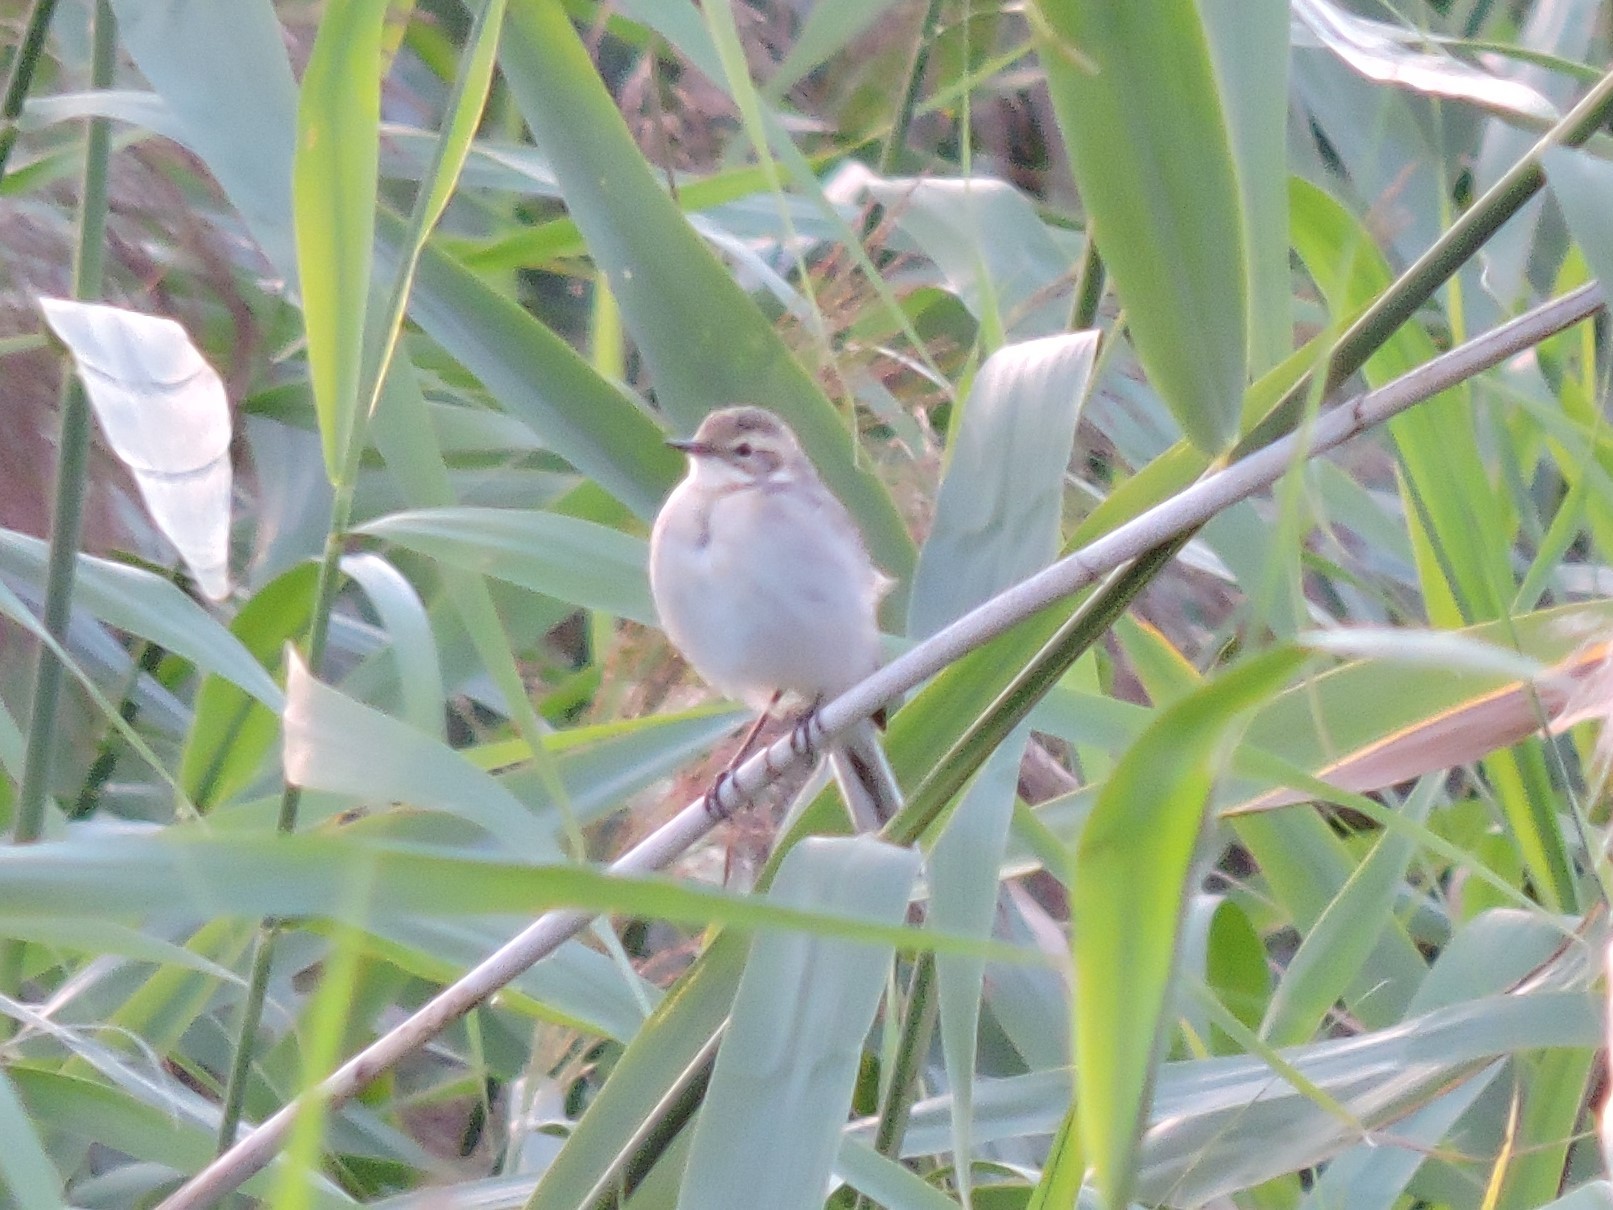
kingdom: Animalia
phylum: Chordata
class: Aves
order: Passeriformes
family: Motacillidae
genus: Motacilla
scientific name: Motacilla citreola
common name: Citrine wagtail
